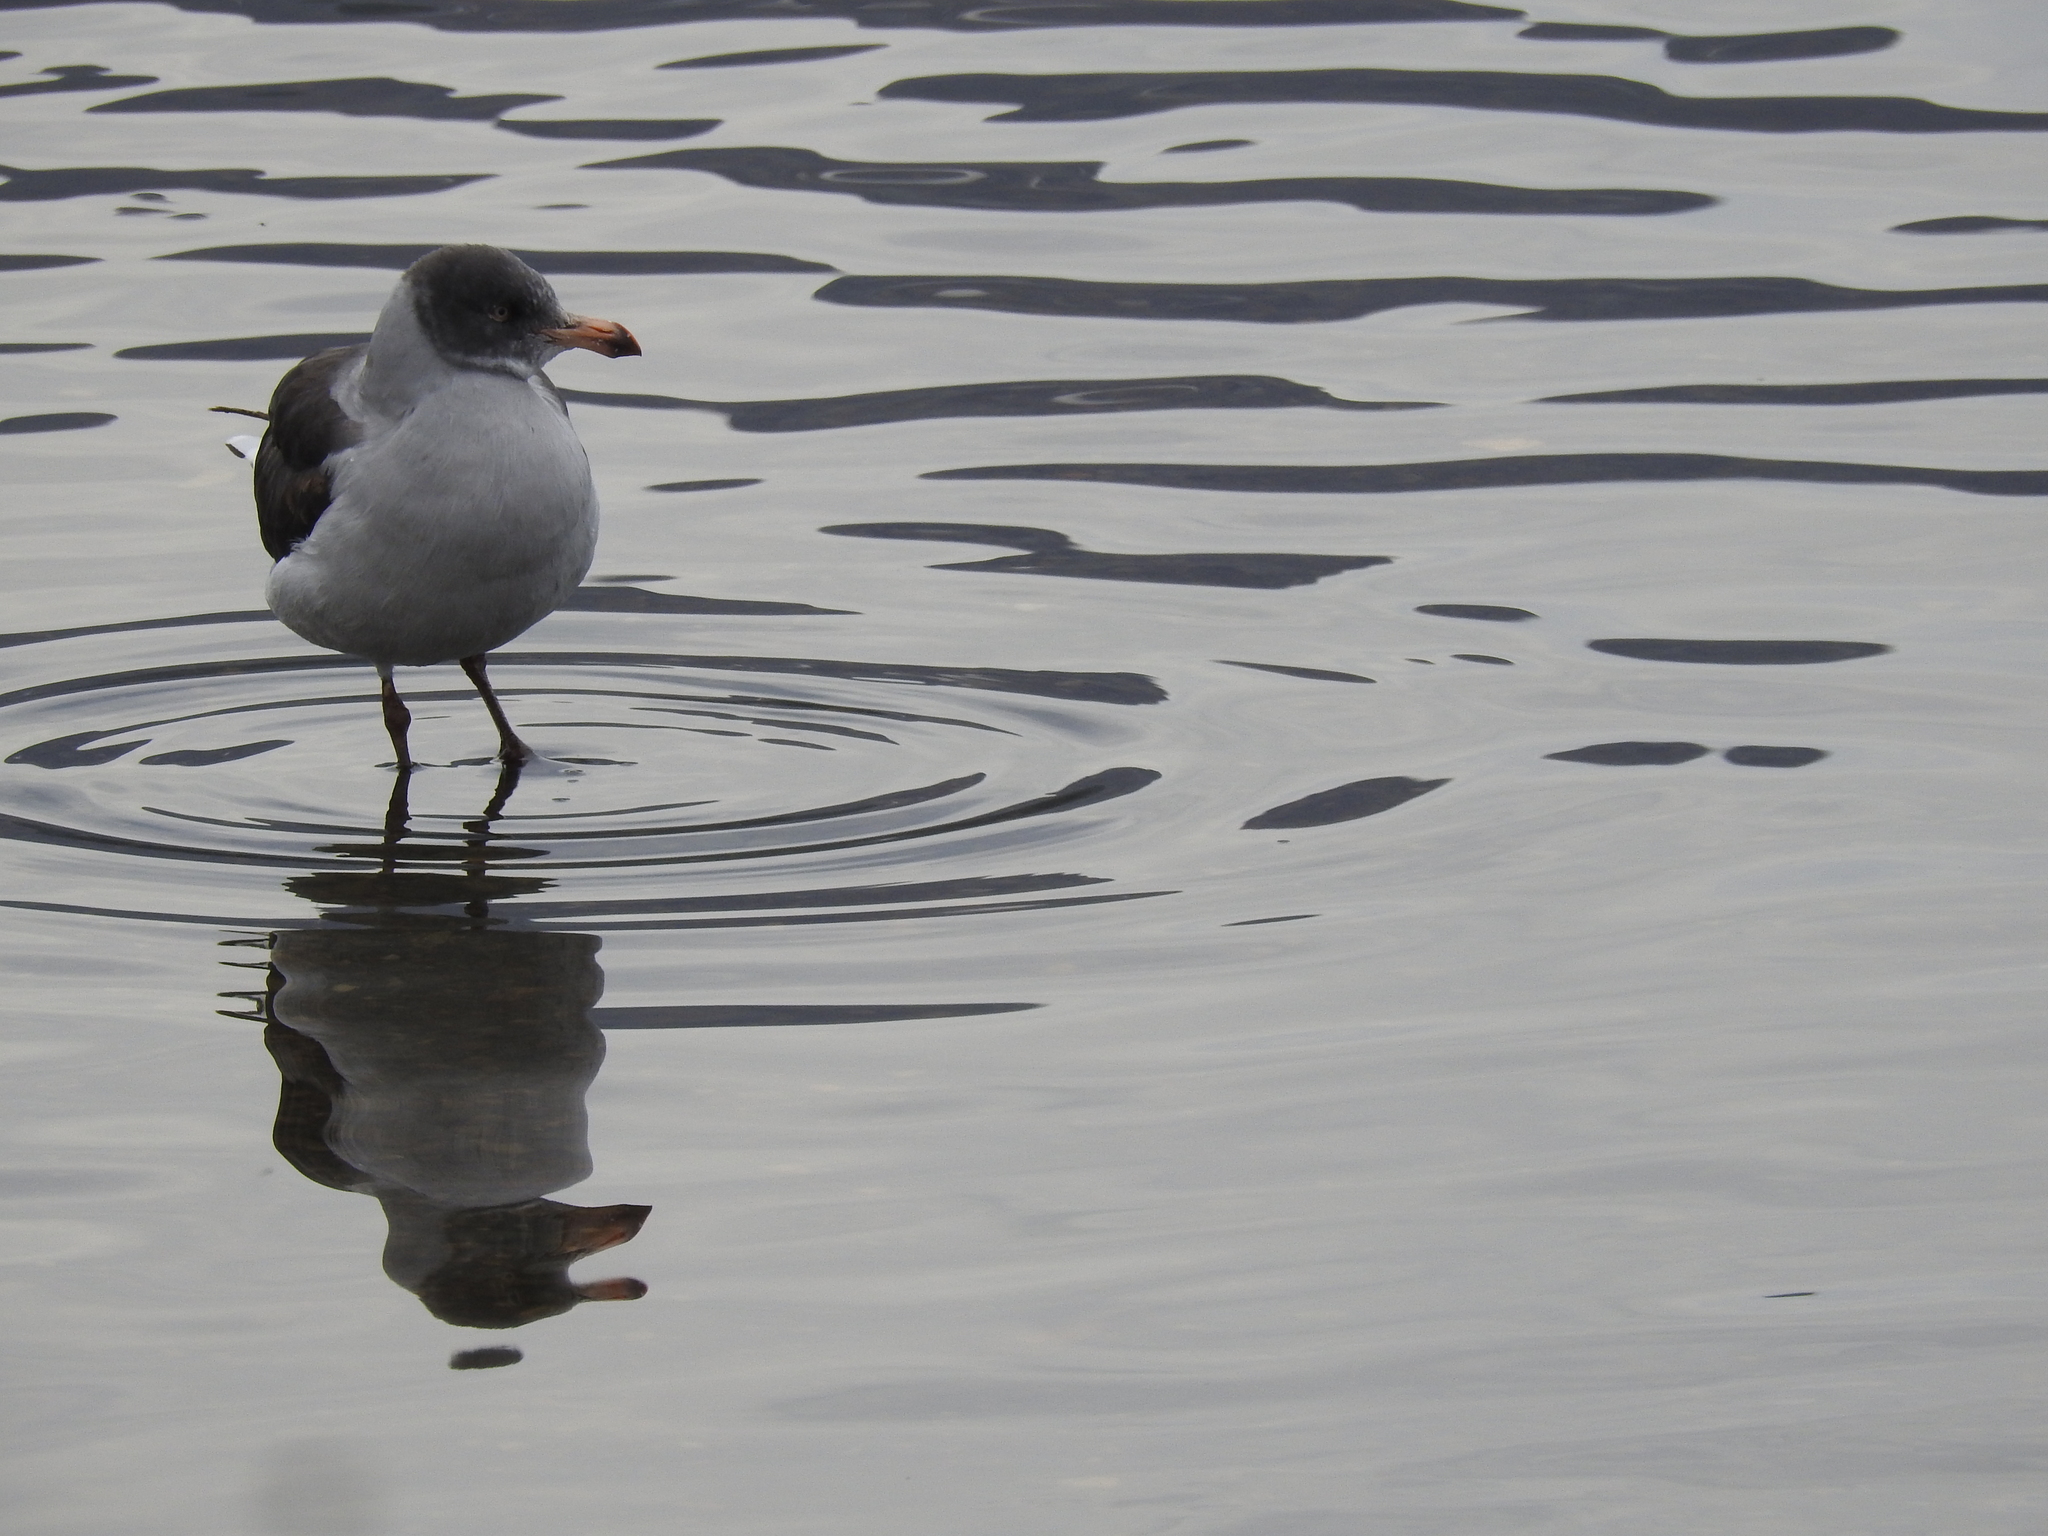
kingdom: Animalia
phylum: Chordata
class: Aves
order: Charadriiformes
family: Laridae
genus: Leucophaeus
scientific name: Leucophaeus scoresbii
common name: Dolphin gull
